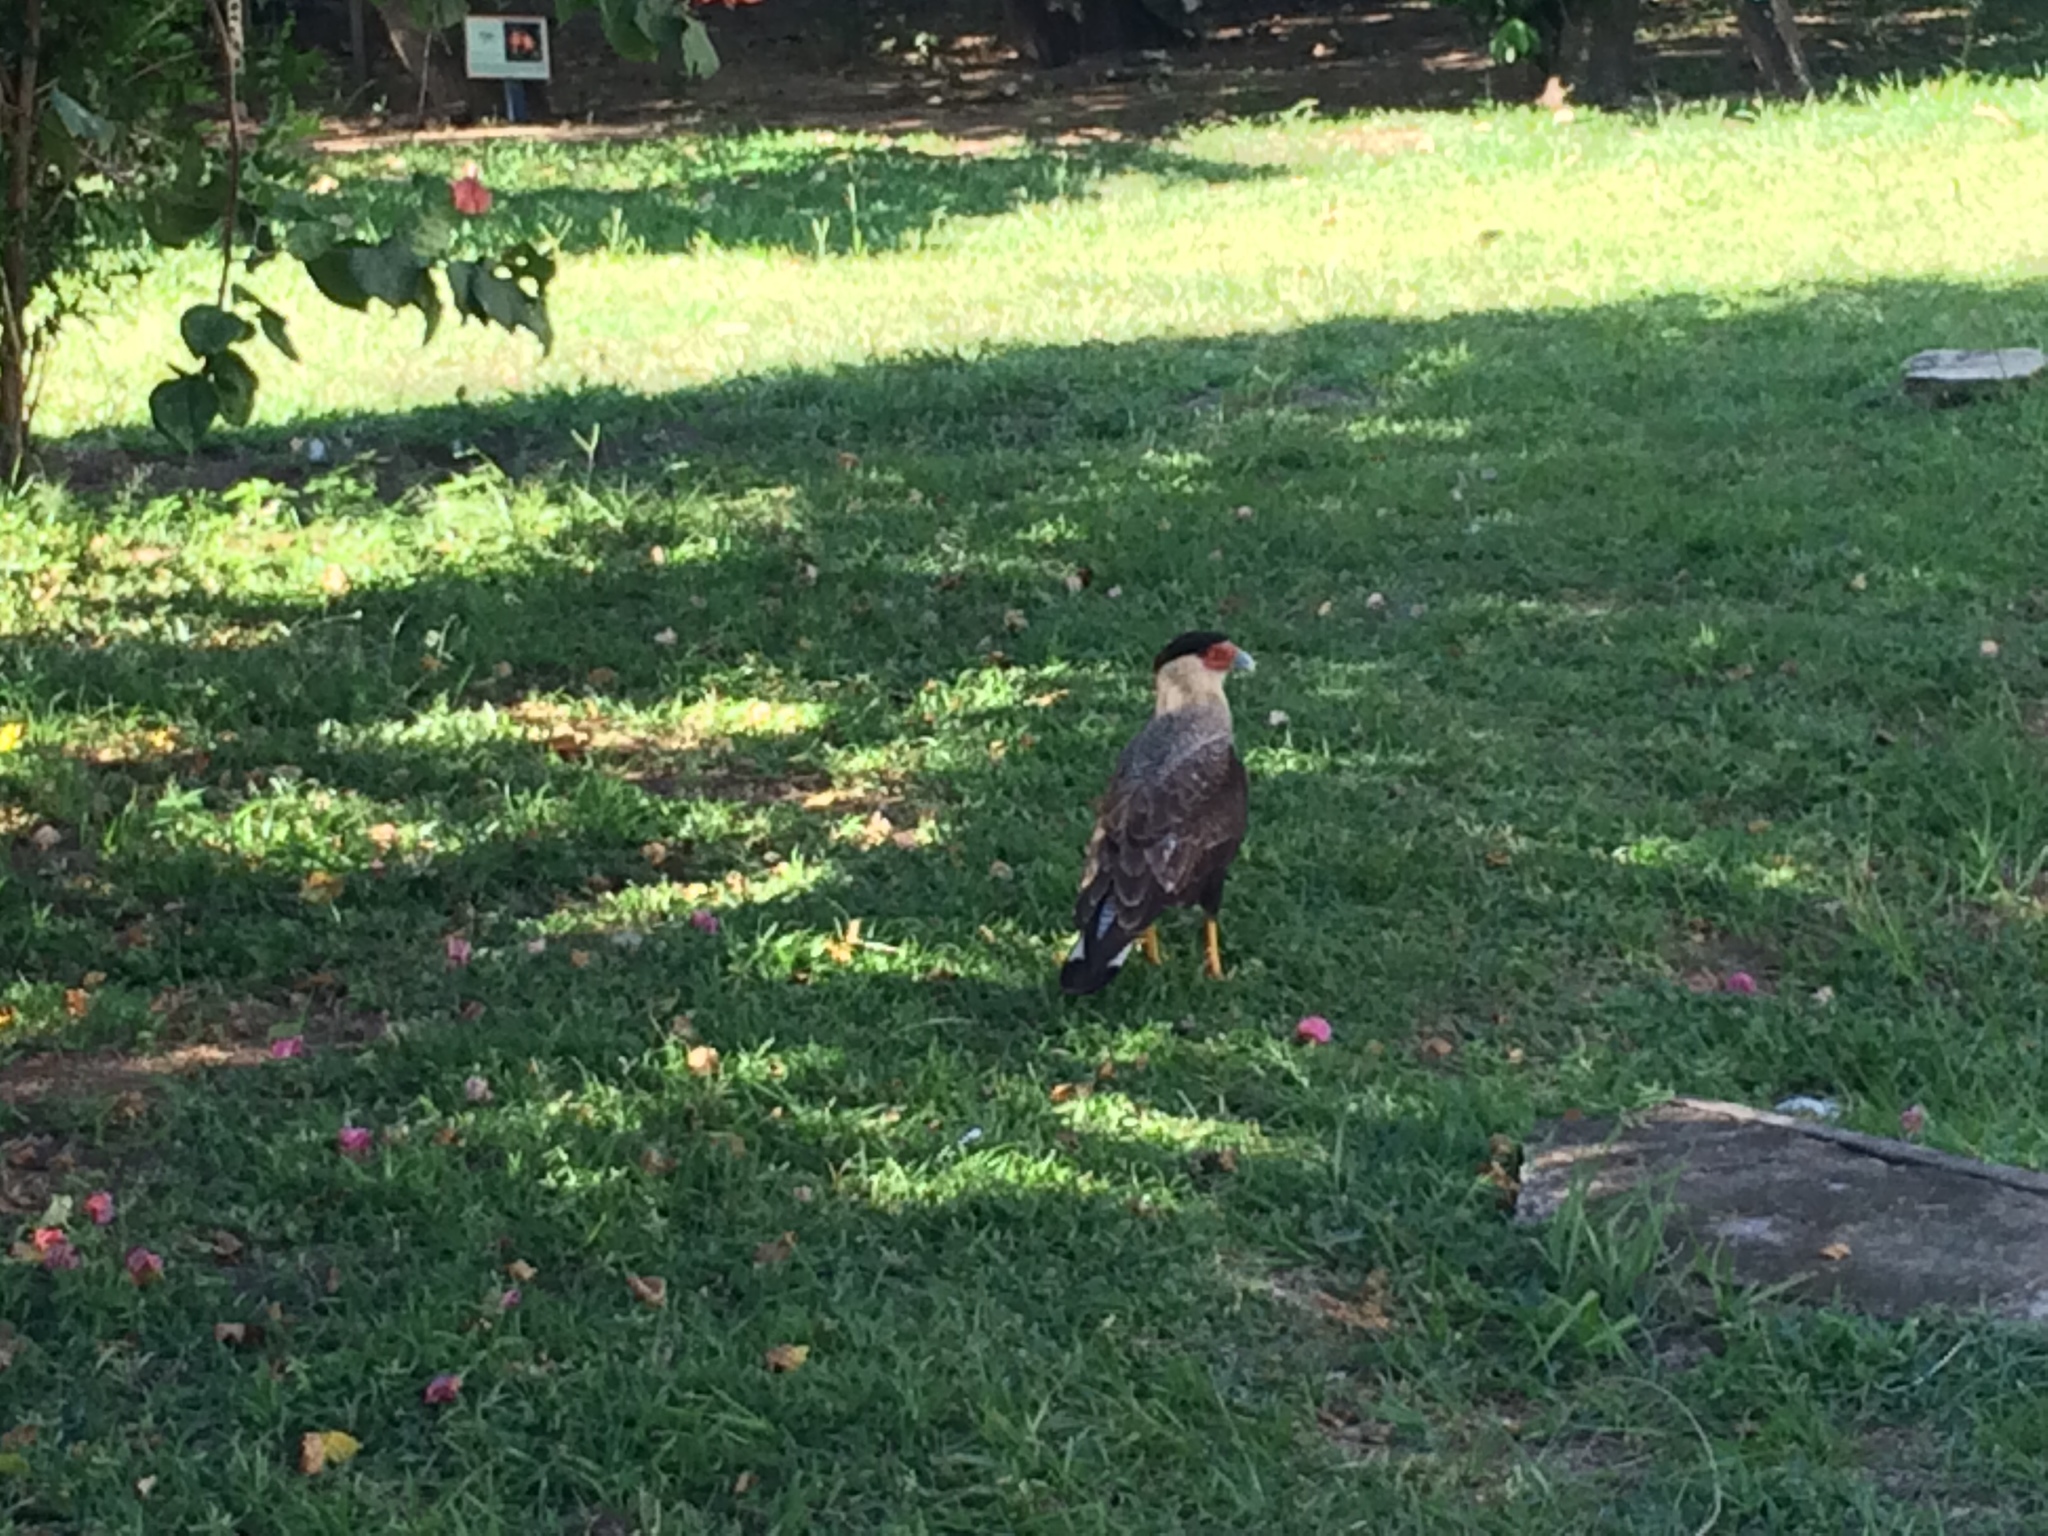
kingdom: Animalia
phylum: Chordata
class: Aves
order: Falconiformes
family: Falconidae
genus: Caracara
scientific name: Caracara plancus
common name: Southern caracara
